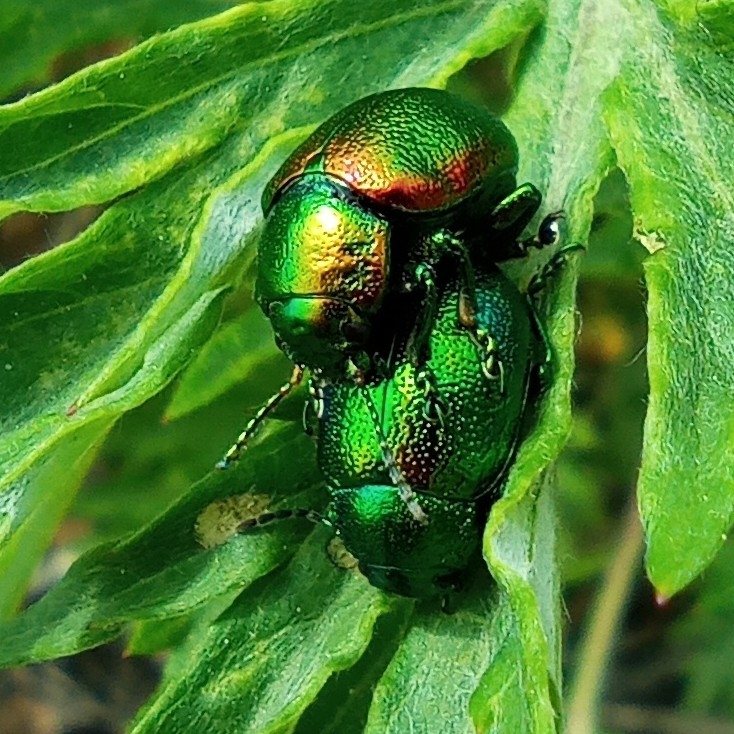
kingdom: Animalia
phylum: Arthropoda
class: Insecta
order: Coleoptera
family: Chrysomelidae
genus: Chrysolina
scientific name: Chrysolina graminis
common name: Tansey beetle
